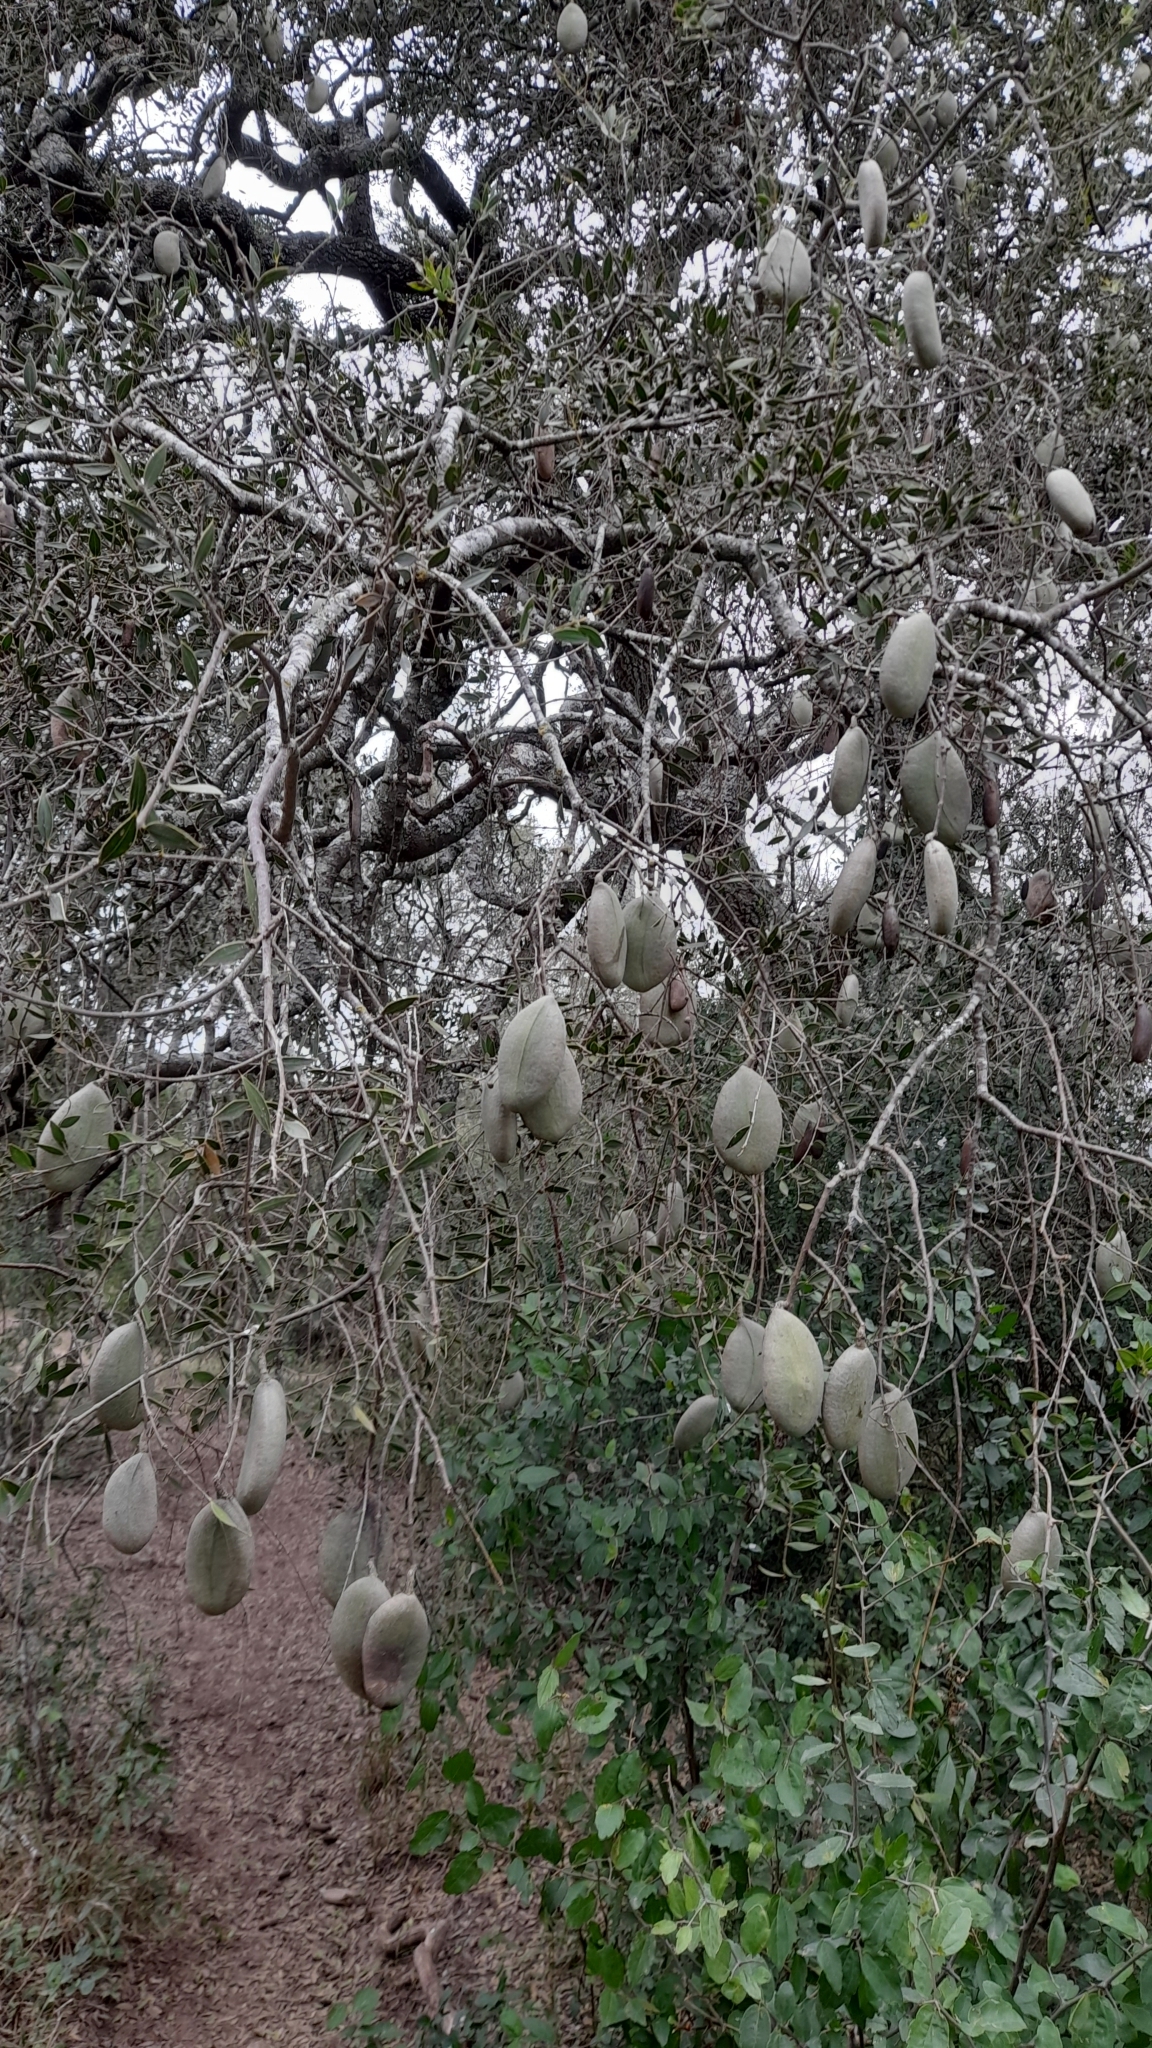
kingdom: Plantae
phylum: Tracheophyta
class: Magnoliopsida
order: Gentianales
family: Apocynaceae
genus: Aspidosperma
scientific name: Aspidosperma quebracho-blanco
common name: White quebracho
